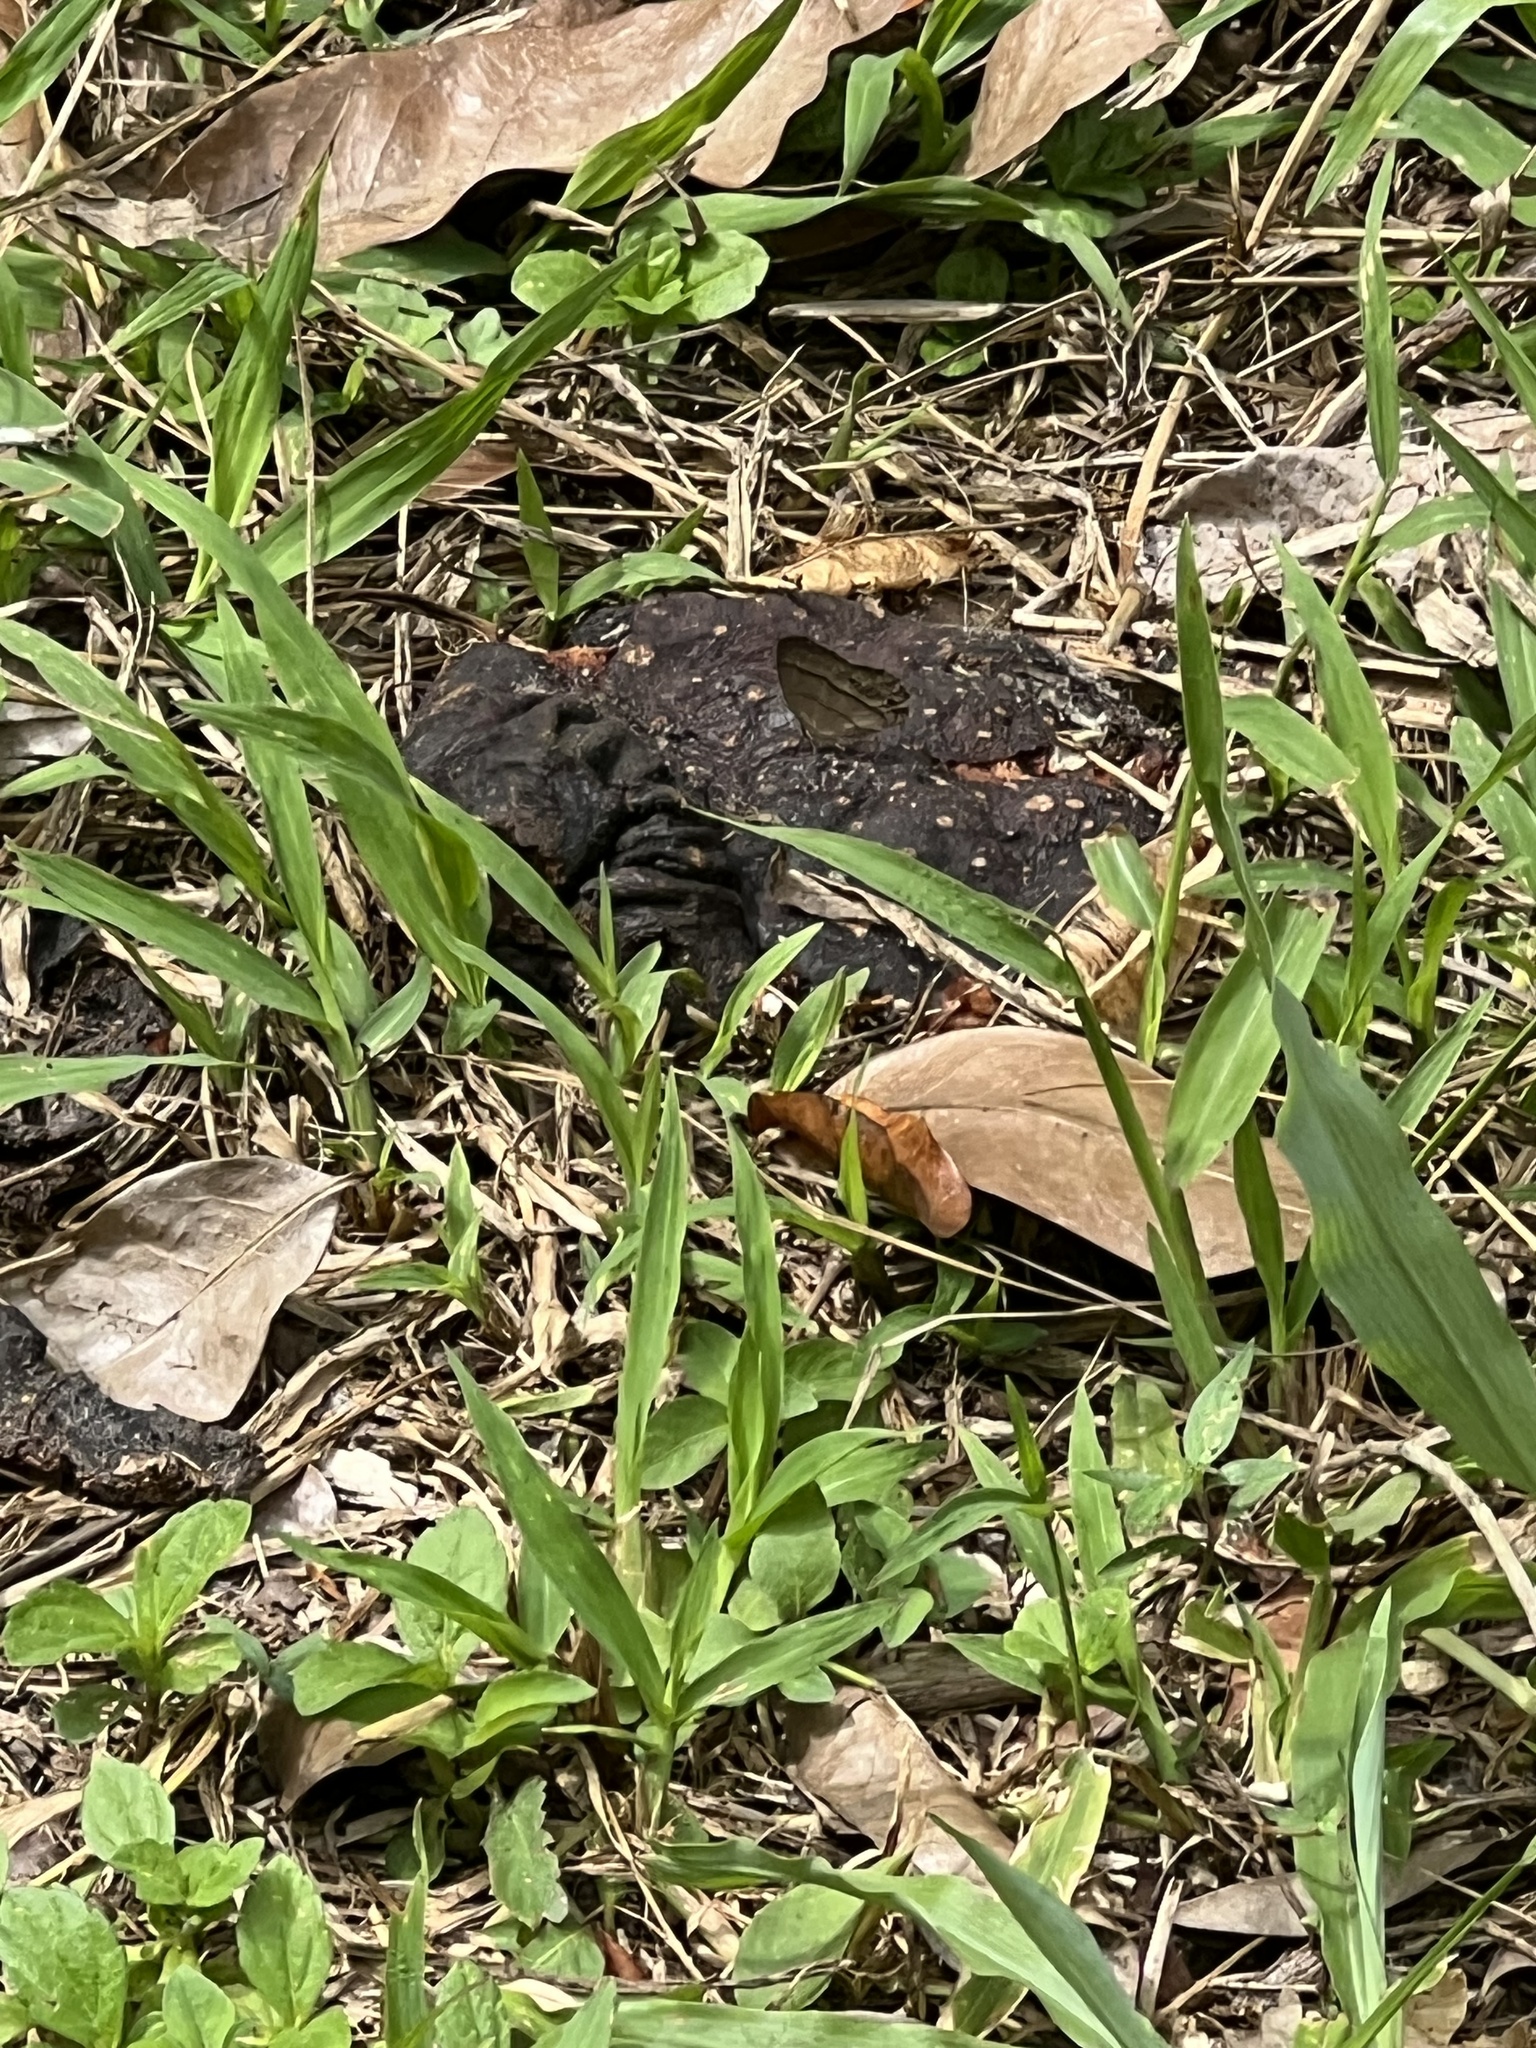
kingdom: Animalia
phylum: Arthropoda
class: Insecta
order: Lepidoptera
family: Nymphalidae
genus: Euptychia
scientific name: Euptychia Cissia pompilia
